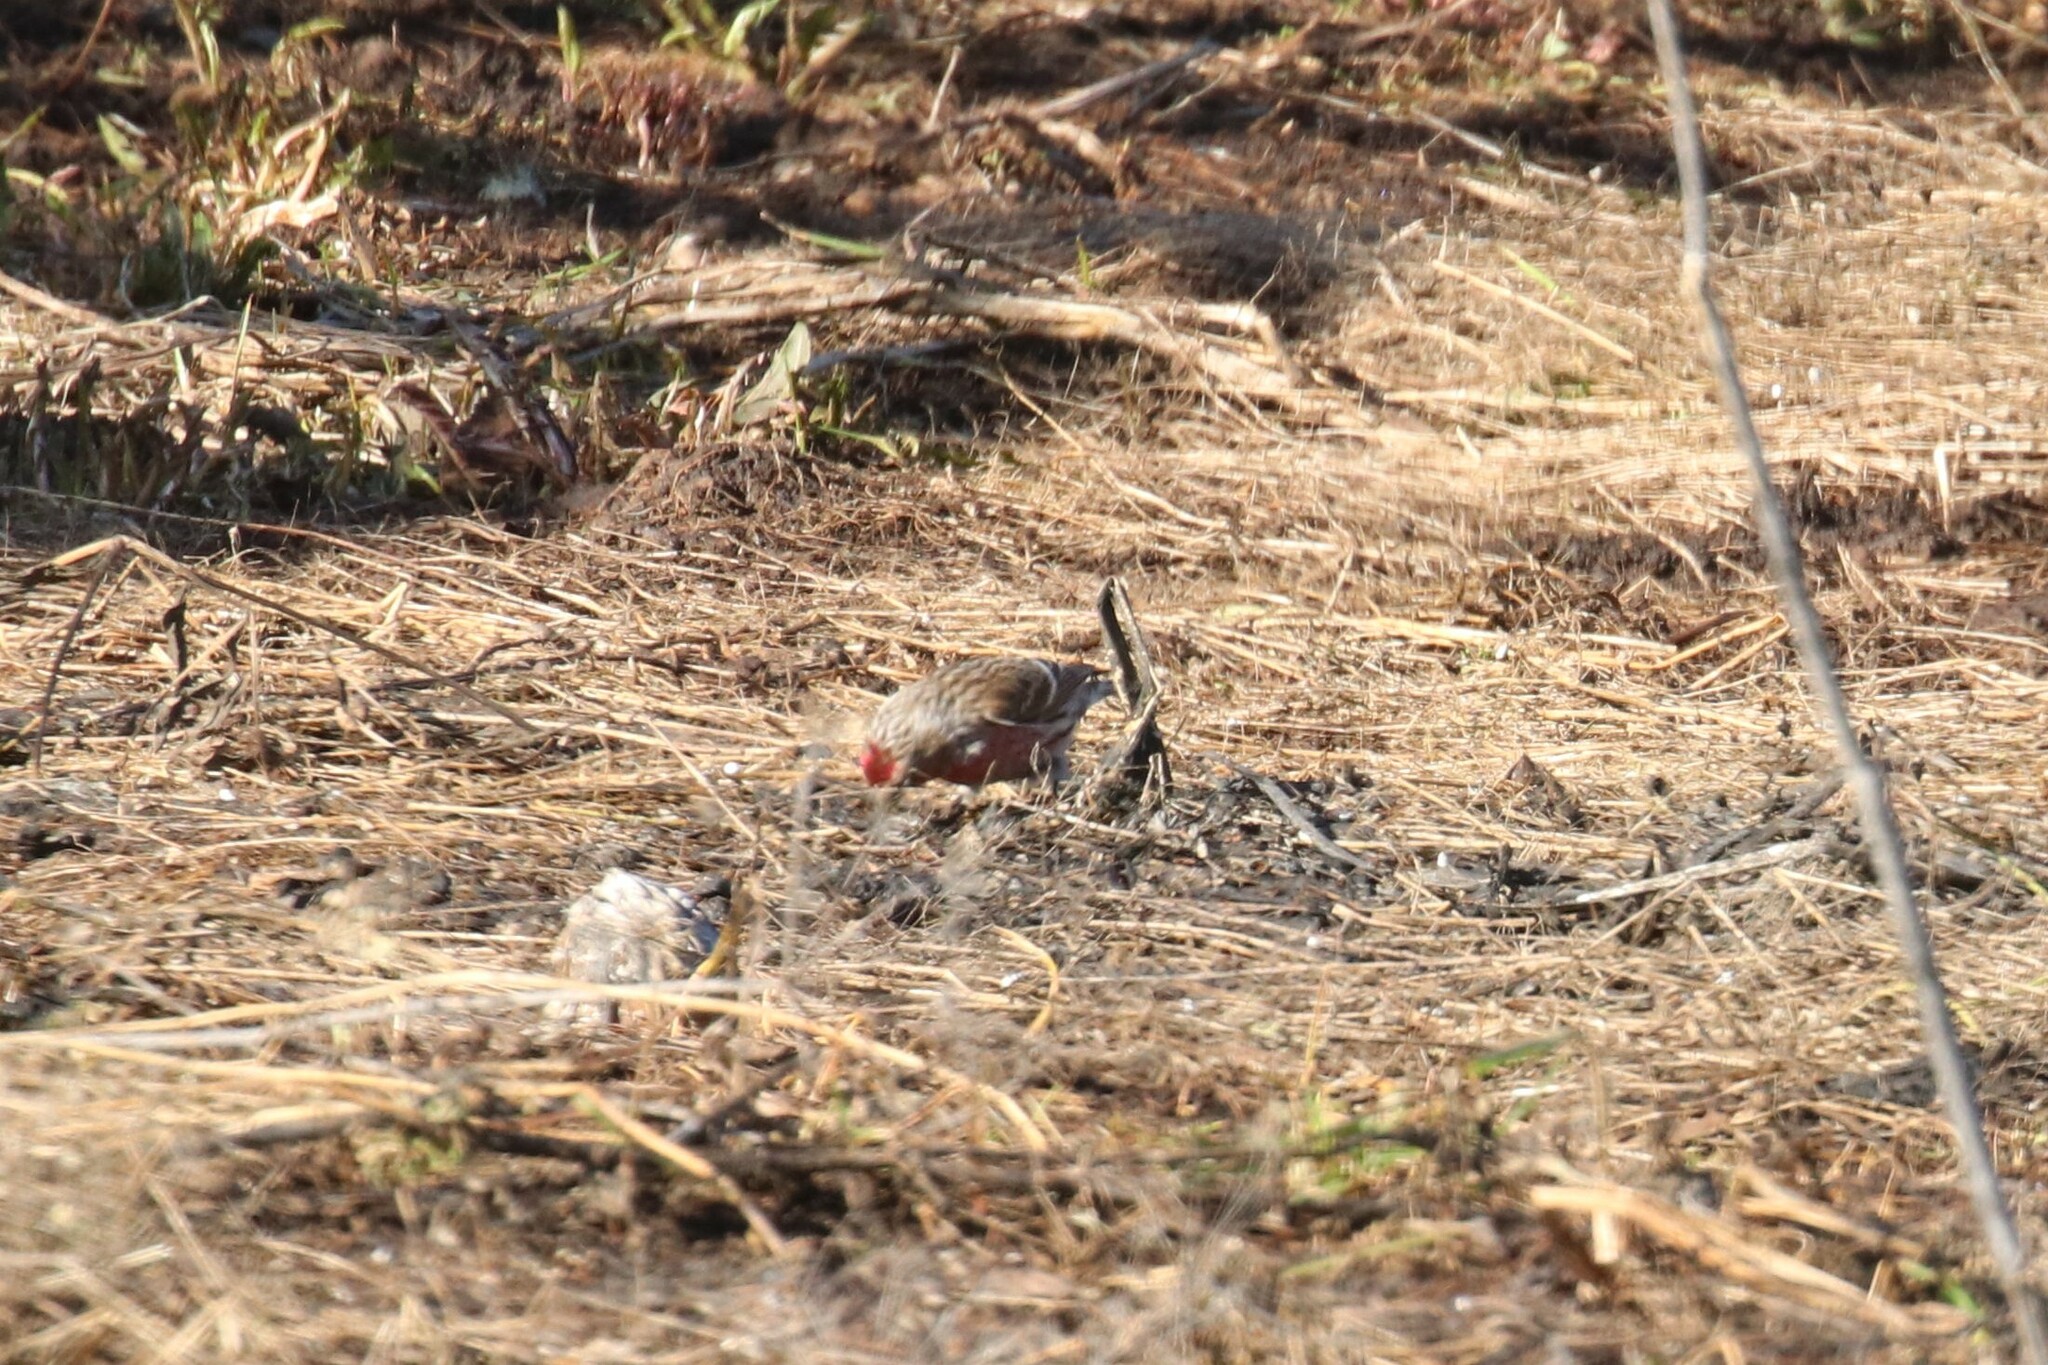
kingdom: Animalia
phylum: Chordata
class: Aves
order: Passeriformes
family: Fringillidae
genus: Acanthis
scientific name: Acanthis flammea
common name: Common redpoll
